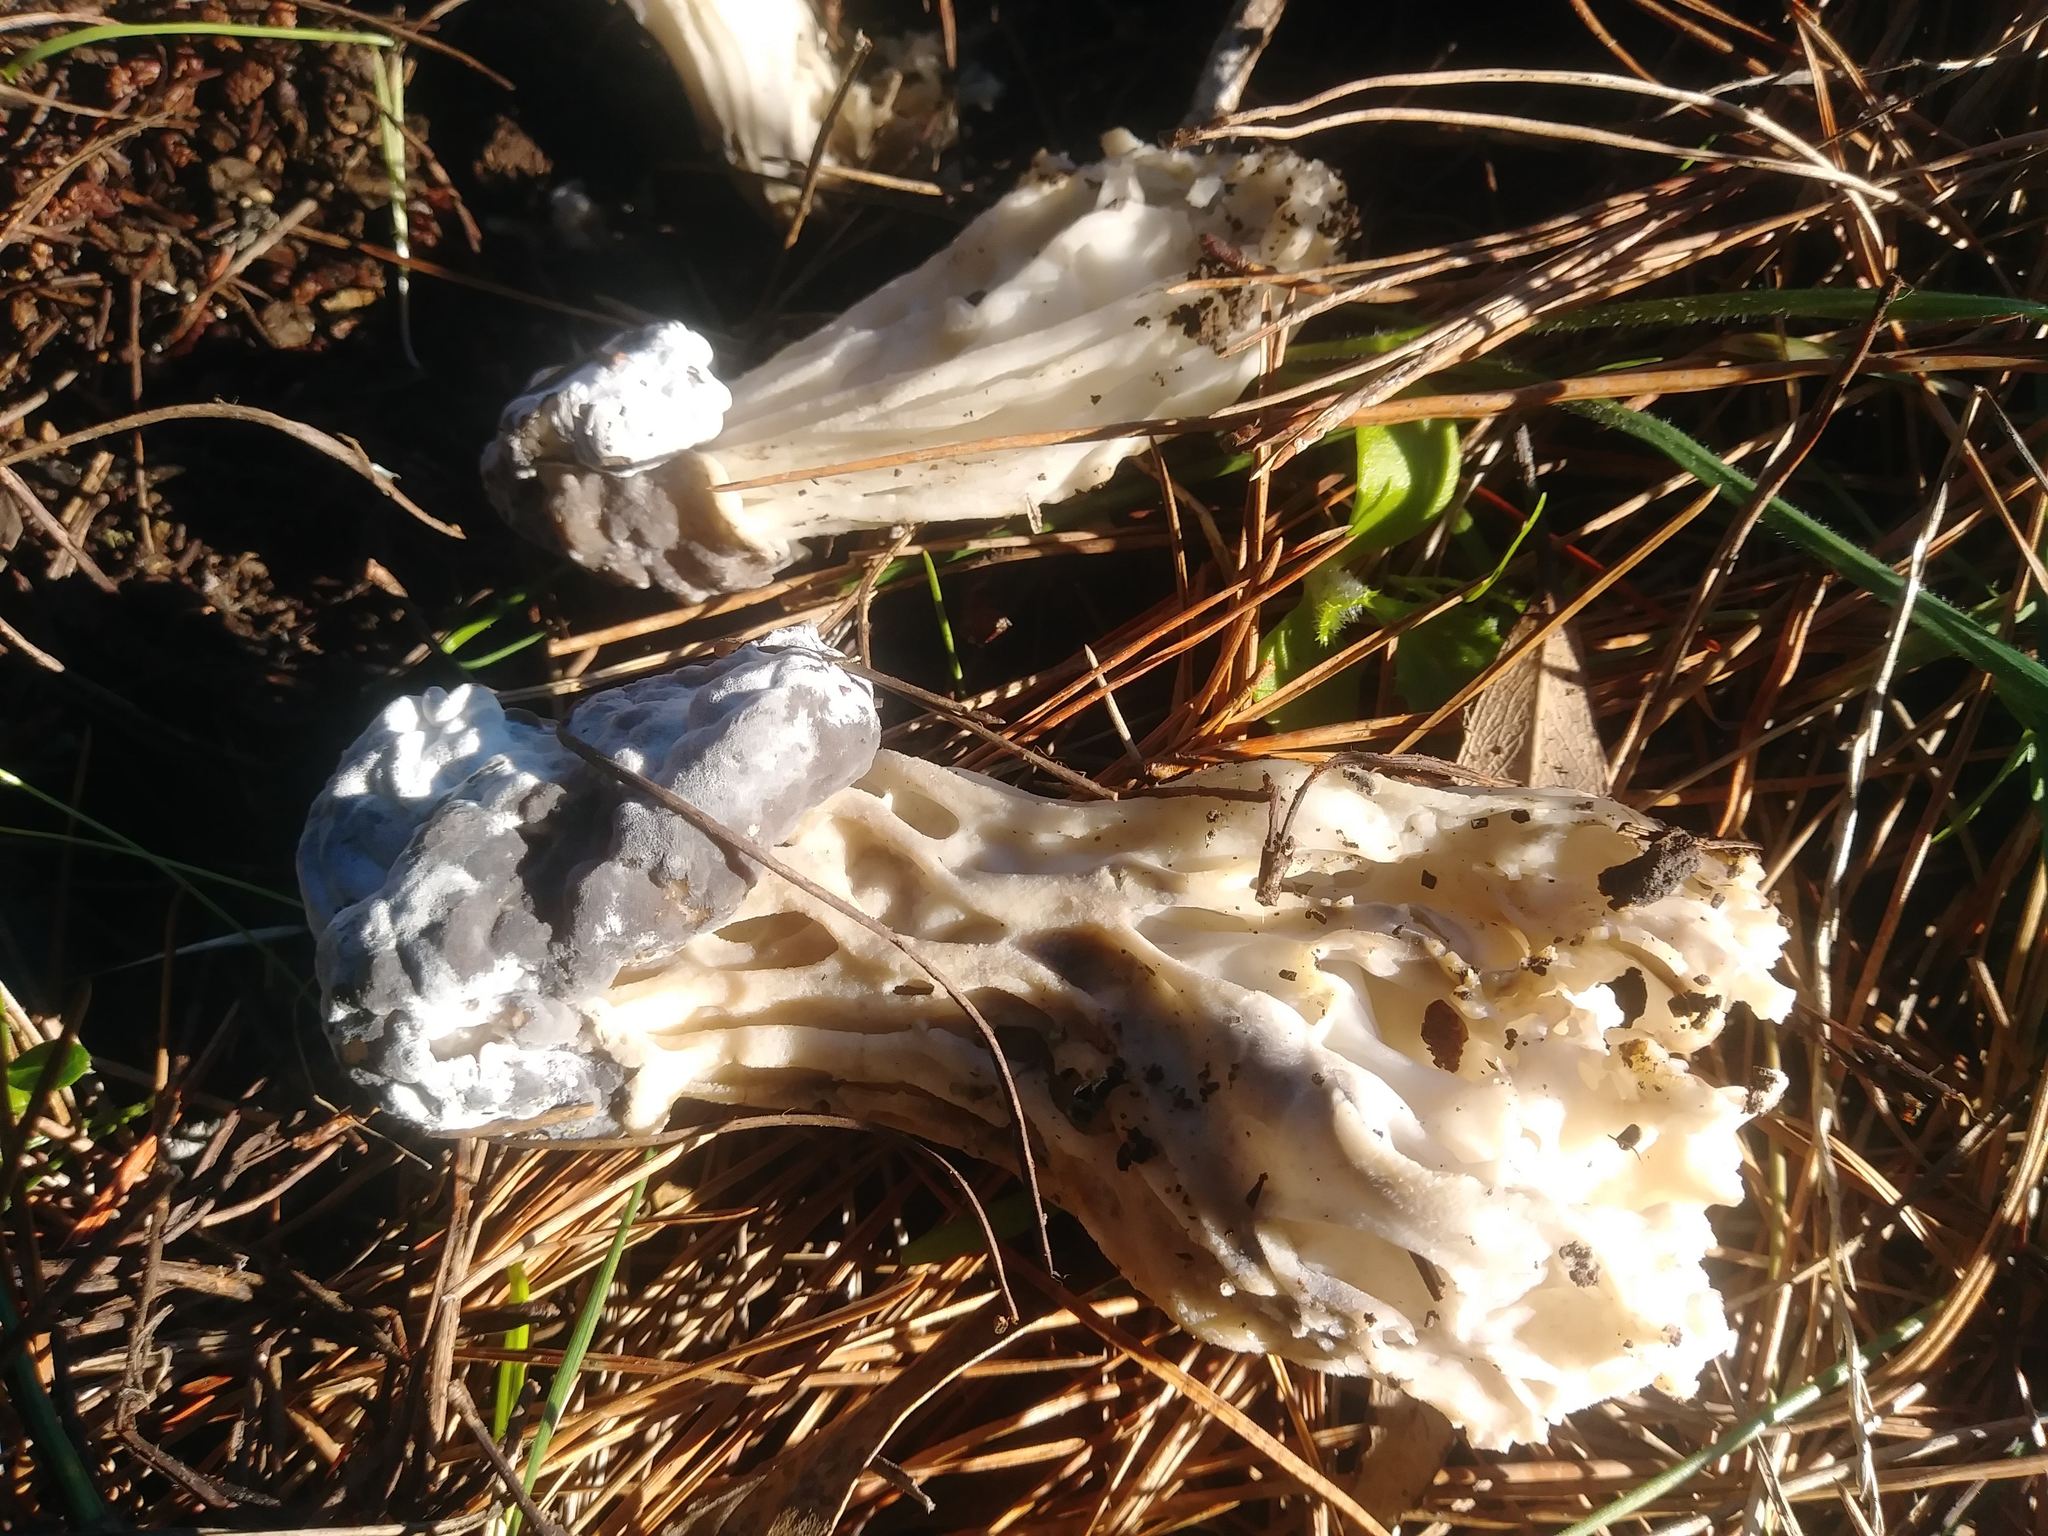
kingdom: Fungi
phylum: Ascomycota
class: Pezizomycetes
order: Pezizales
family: Helvellaceae
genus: Helvella
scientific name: Helvella vespertina
